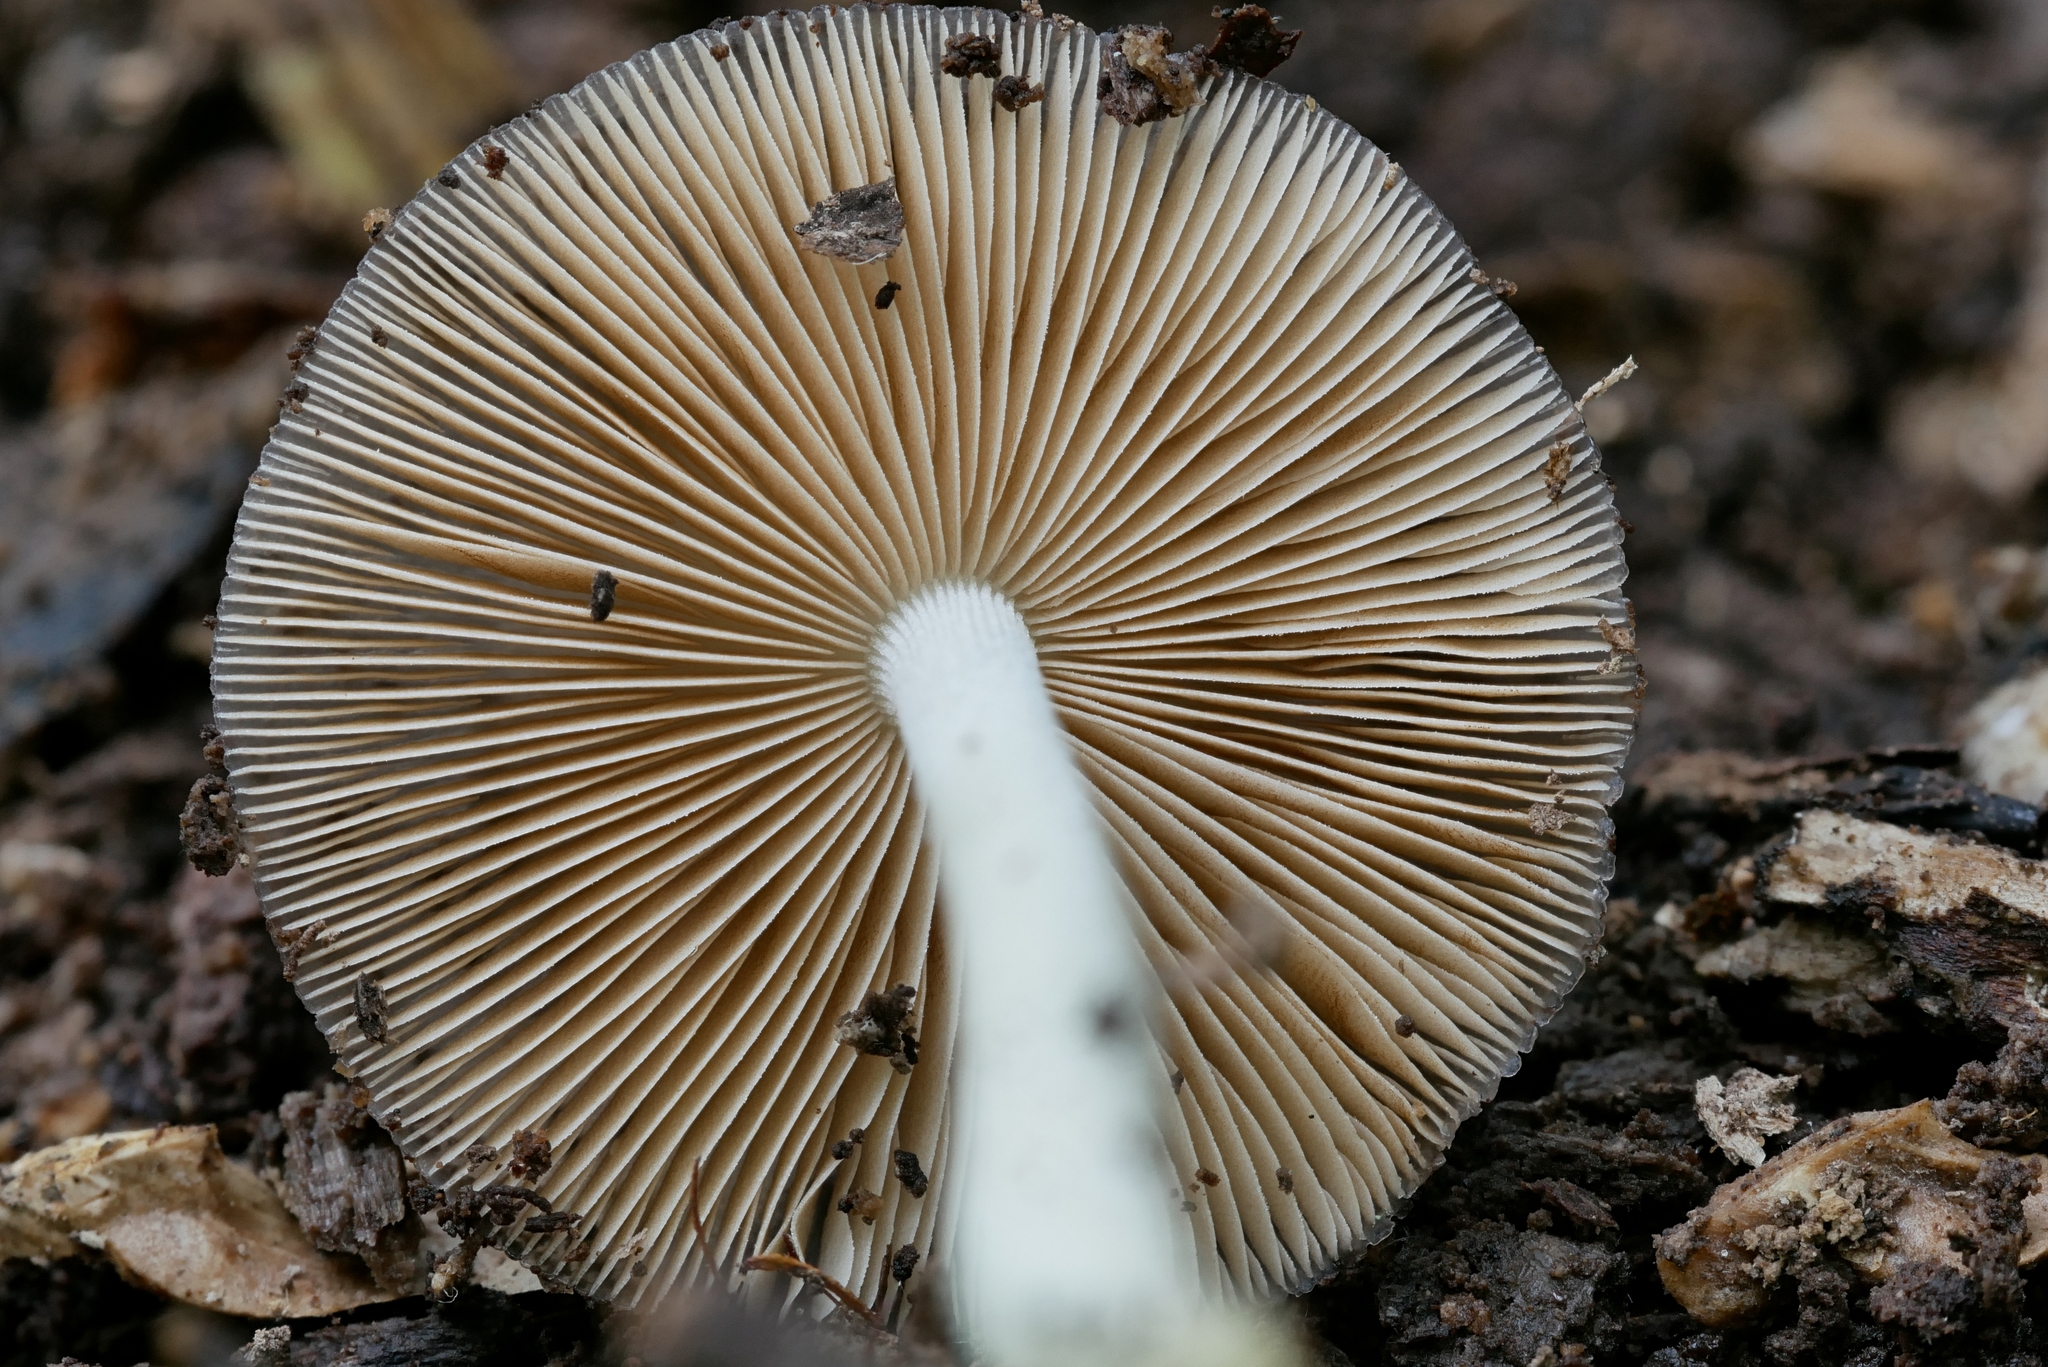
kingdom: Fungi
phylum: Basidiomycota
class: Agaricomycetes
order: Agaricales
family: Bolbitiaceae
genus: Bolbitius
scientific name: Bolbitius reticulatus
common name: Netted fieldcap
